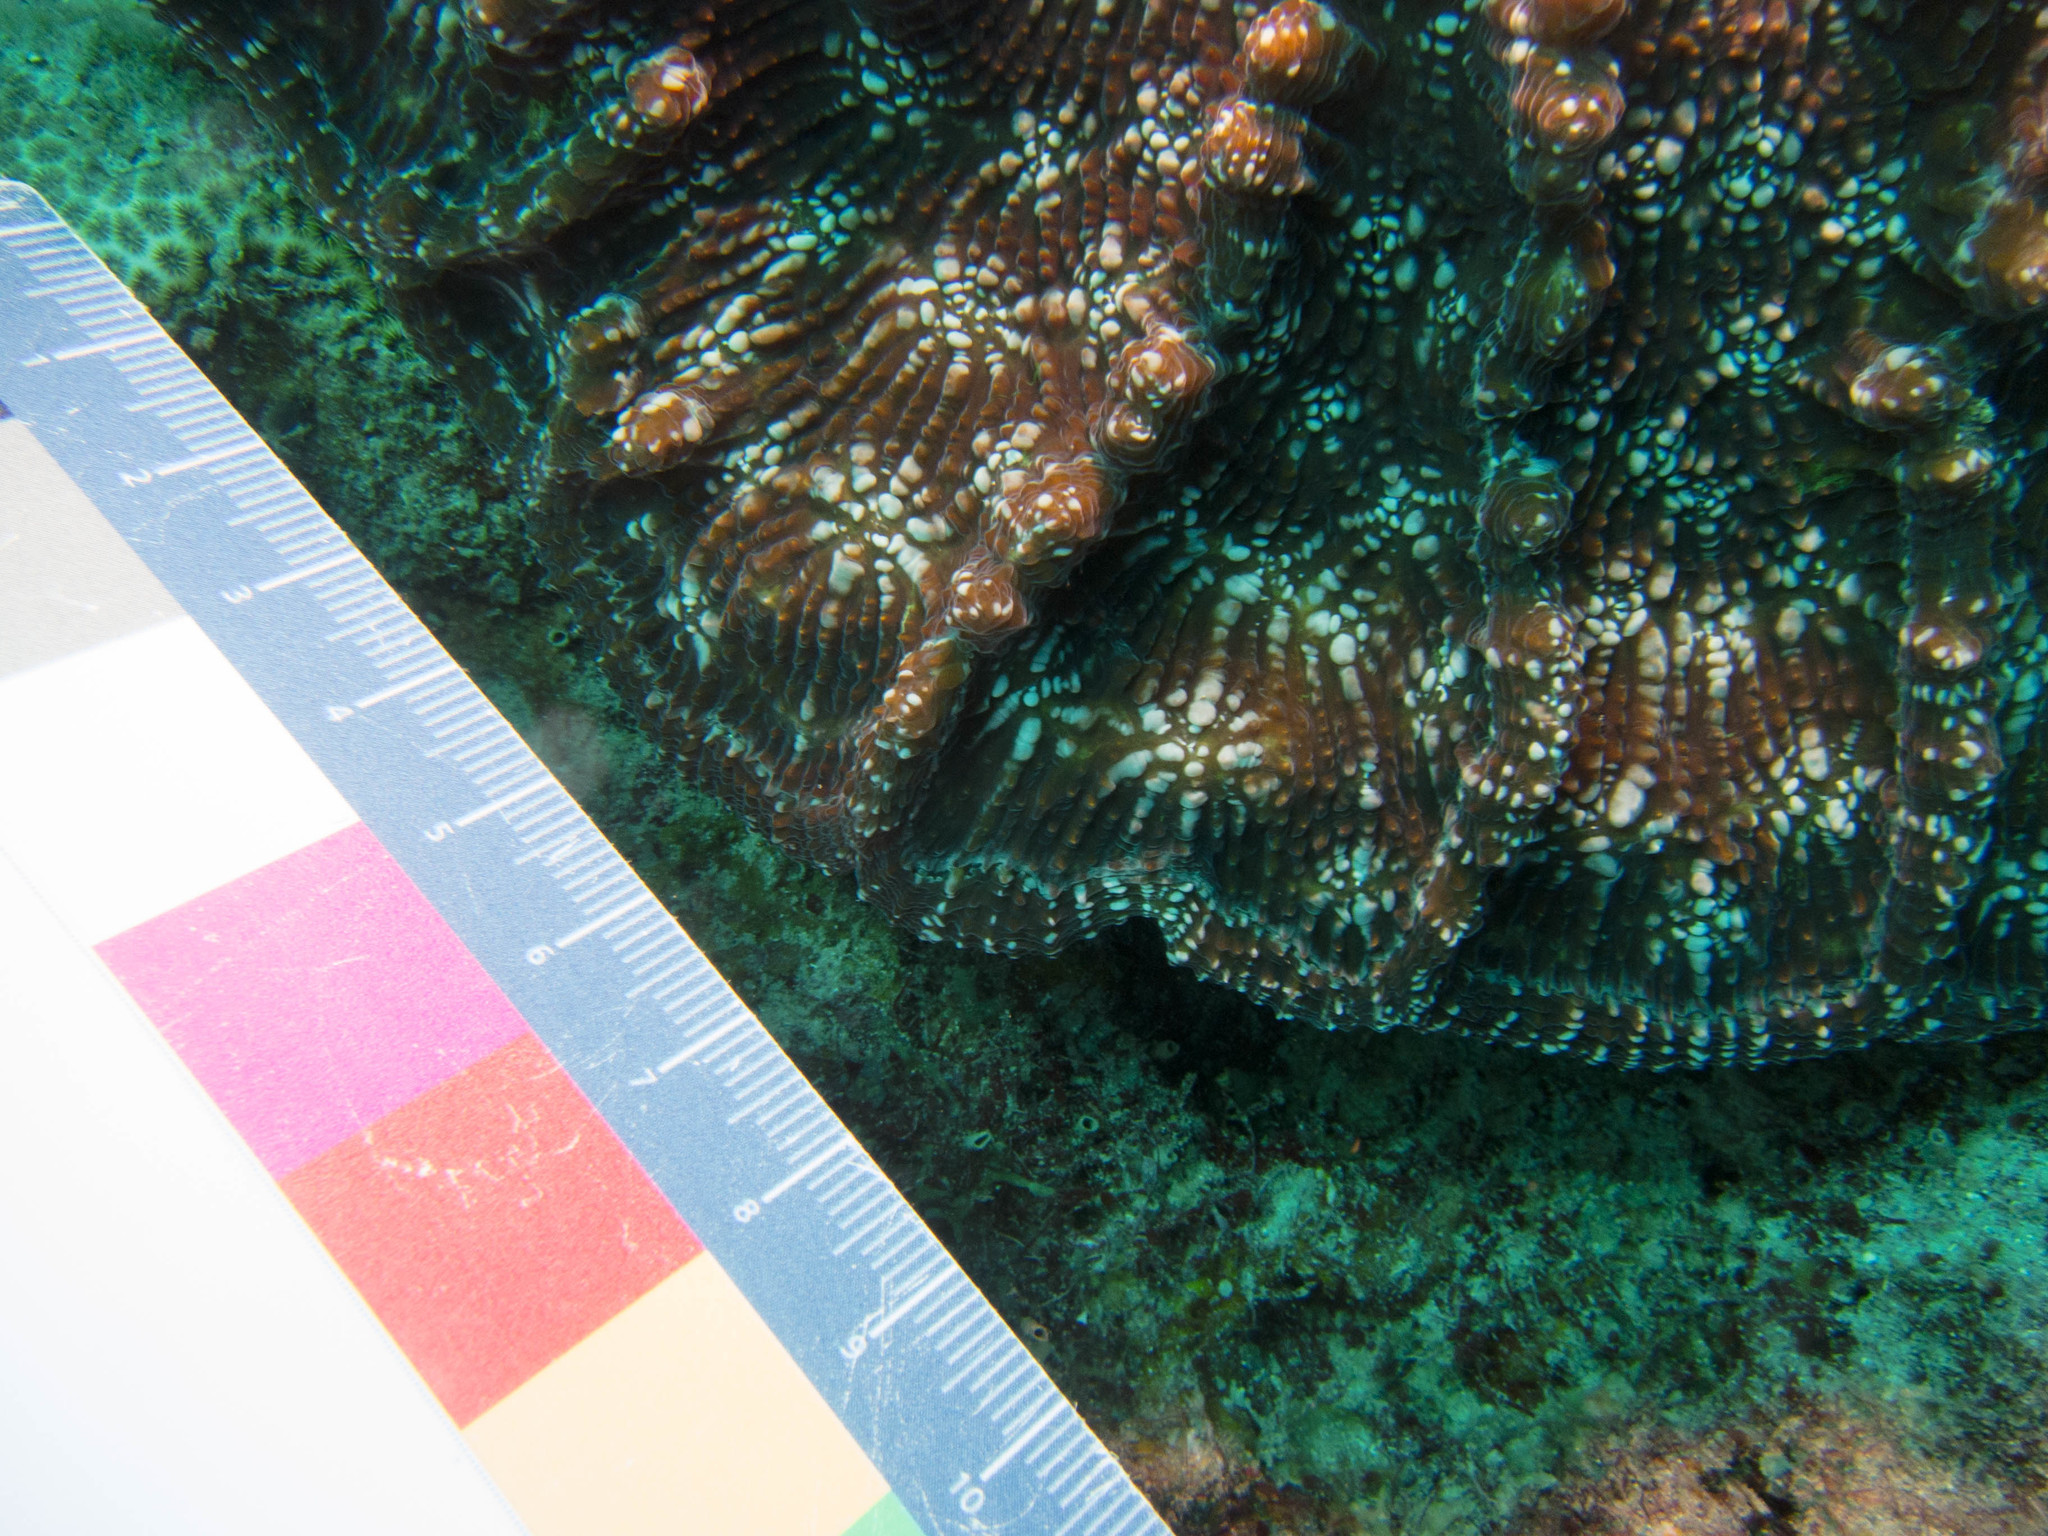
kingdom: Animalia
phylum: Cnidaria
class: Anthozoa
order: Scleractinia
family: Faviidae
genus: Mycetophyllia
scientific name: Mycetophyllia aliciae
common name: Knobby cactus coral
